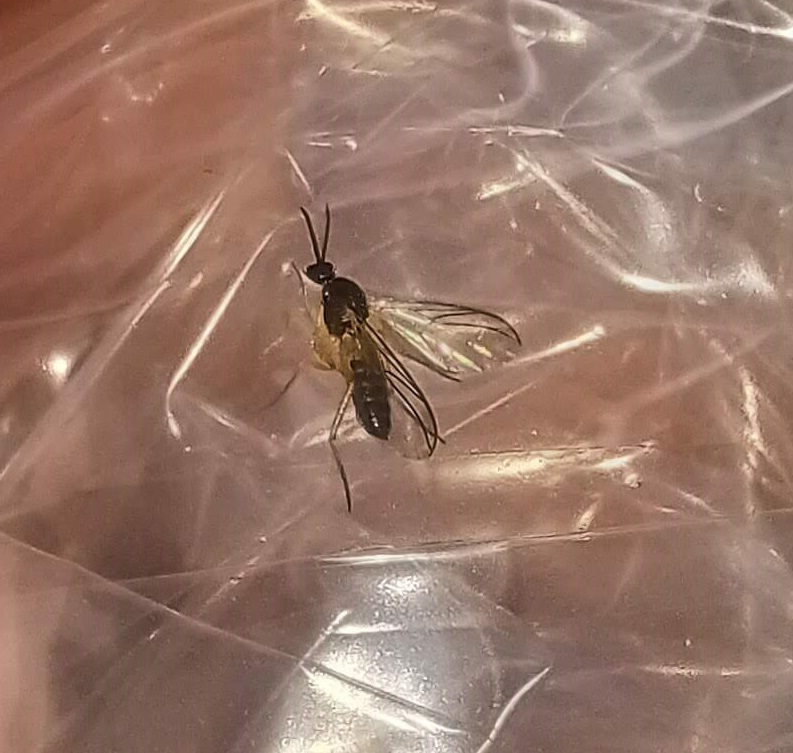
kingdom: Animalia
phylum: Arthropoda
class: Insecta
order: Diptera
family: Anisopodidae
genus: Mycetobia
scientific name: Mycetobia divergens
